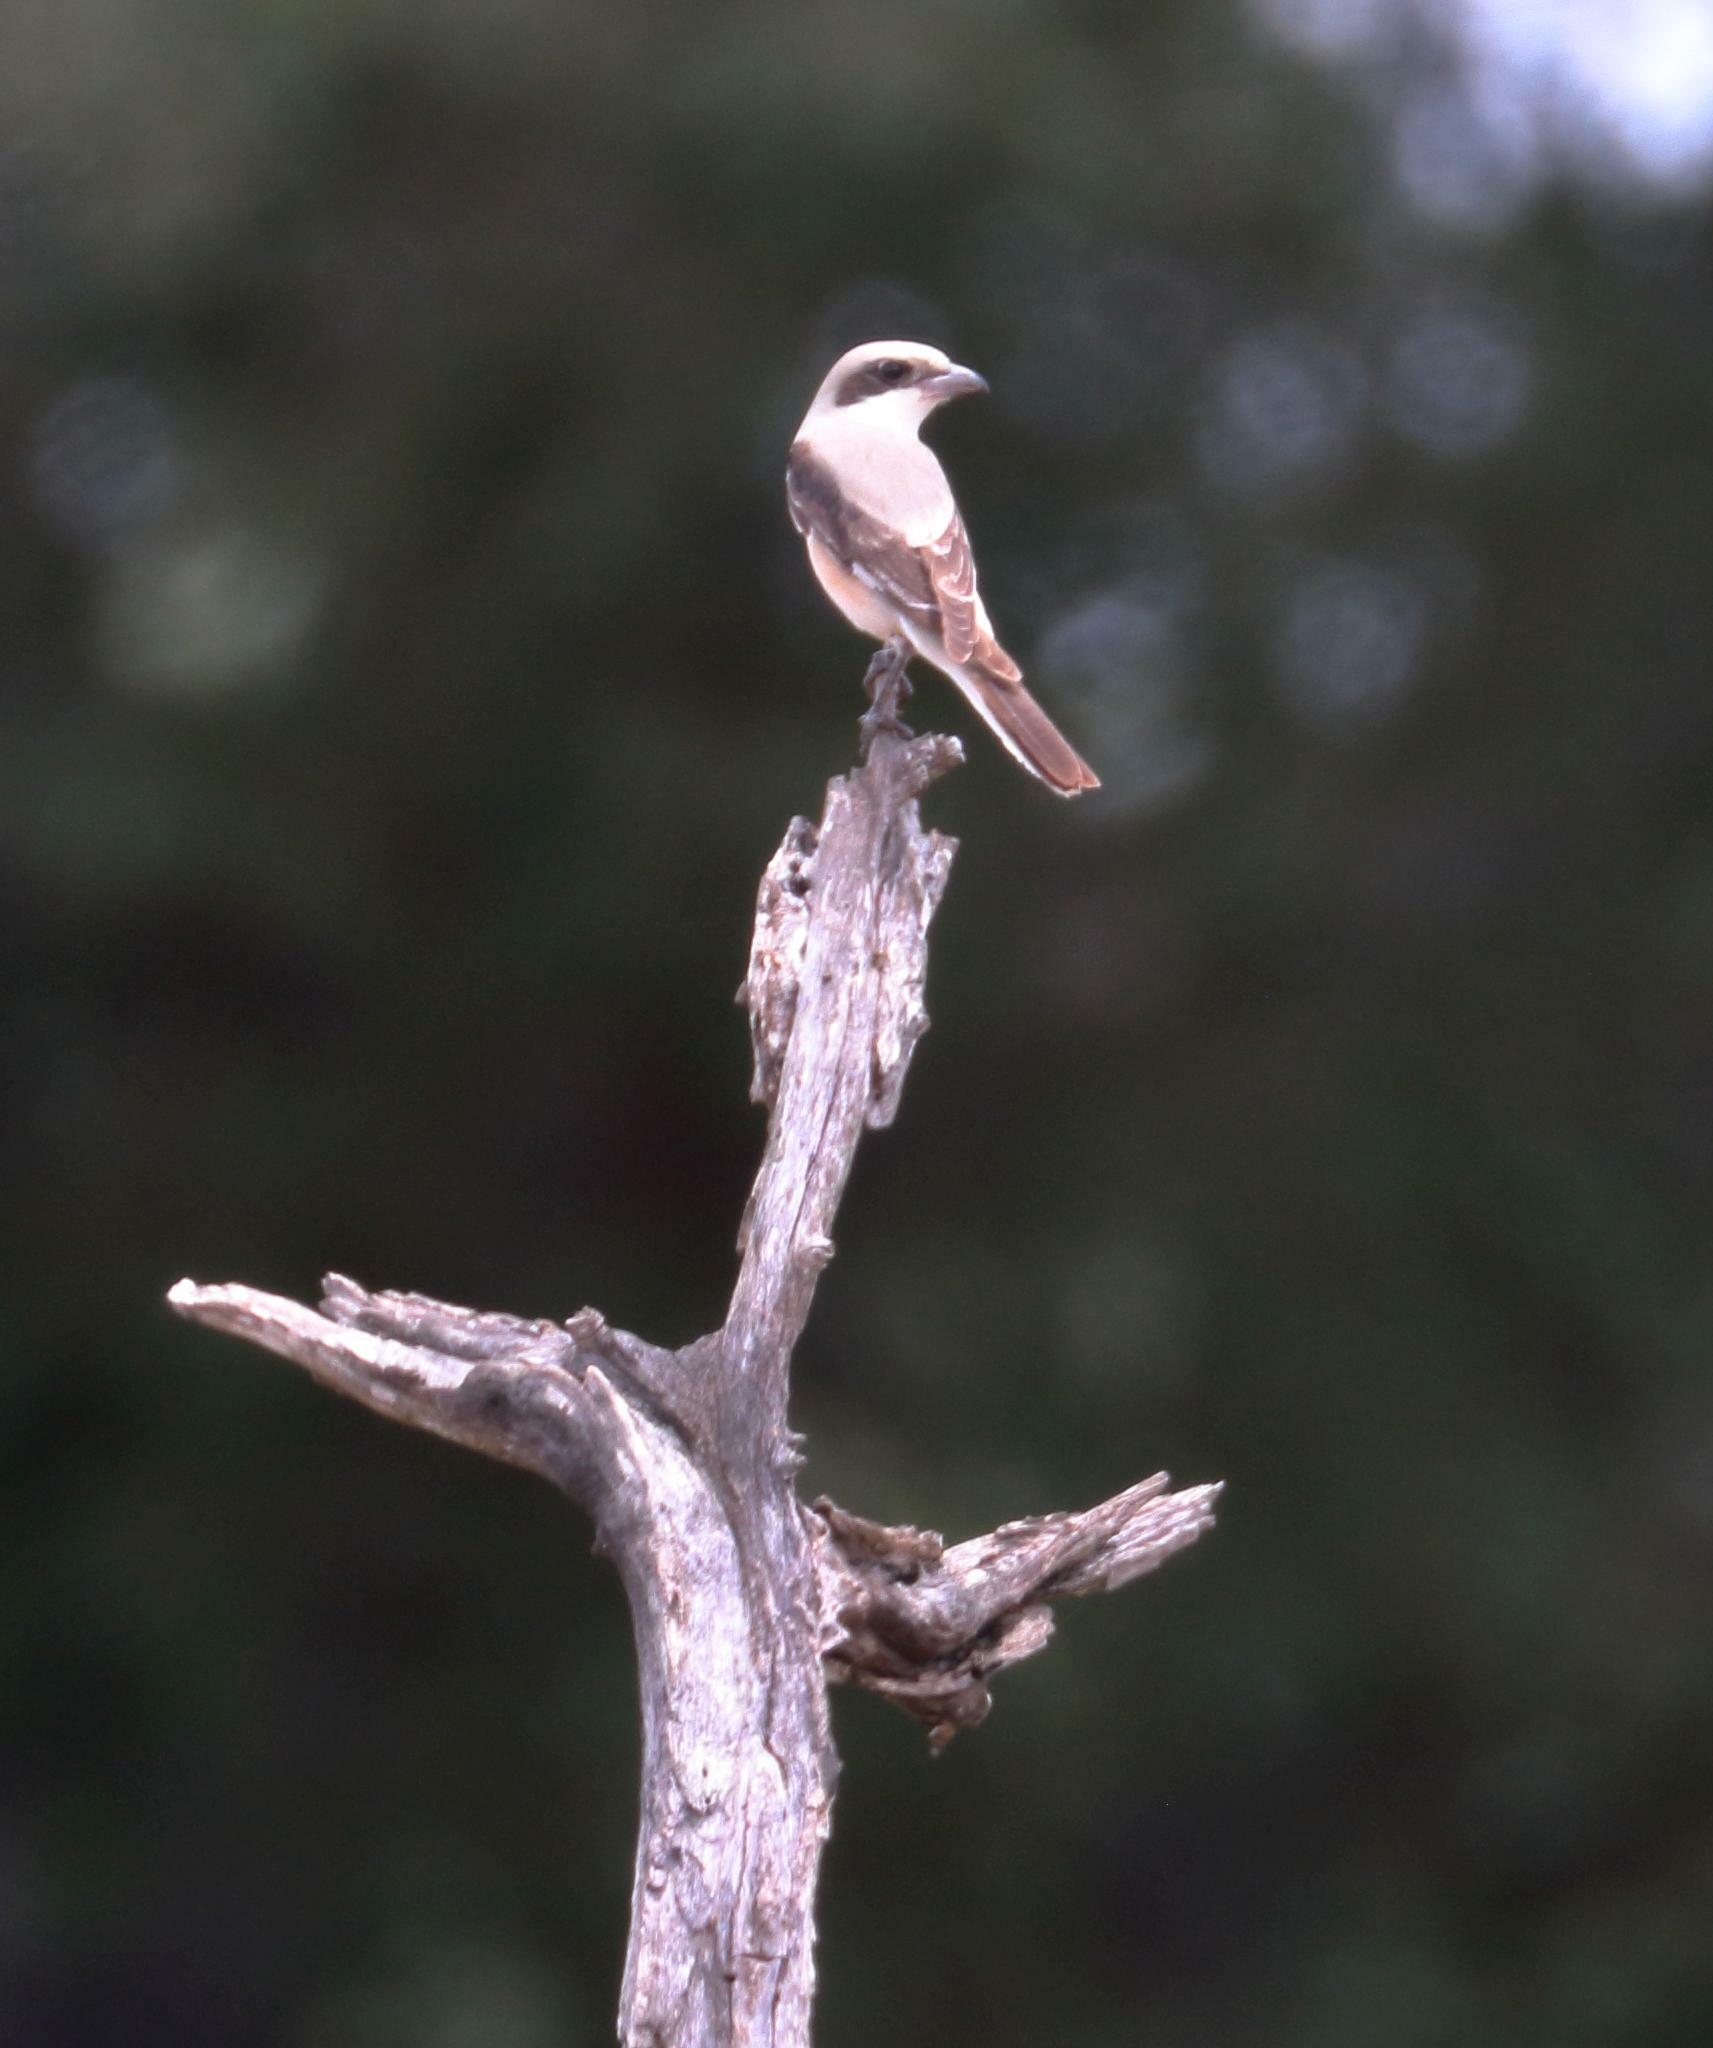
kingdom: Animalia
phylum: Chordata
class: Aves
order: Passeriformes
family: Laniidae
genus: Lanius
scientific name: Lanius minor
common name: Lesser grey shrike
